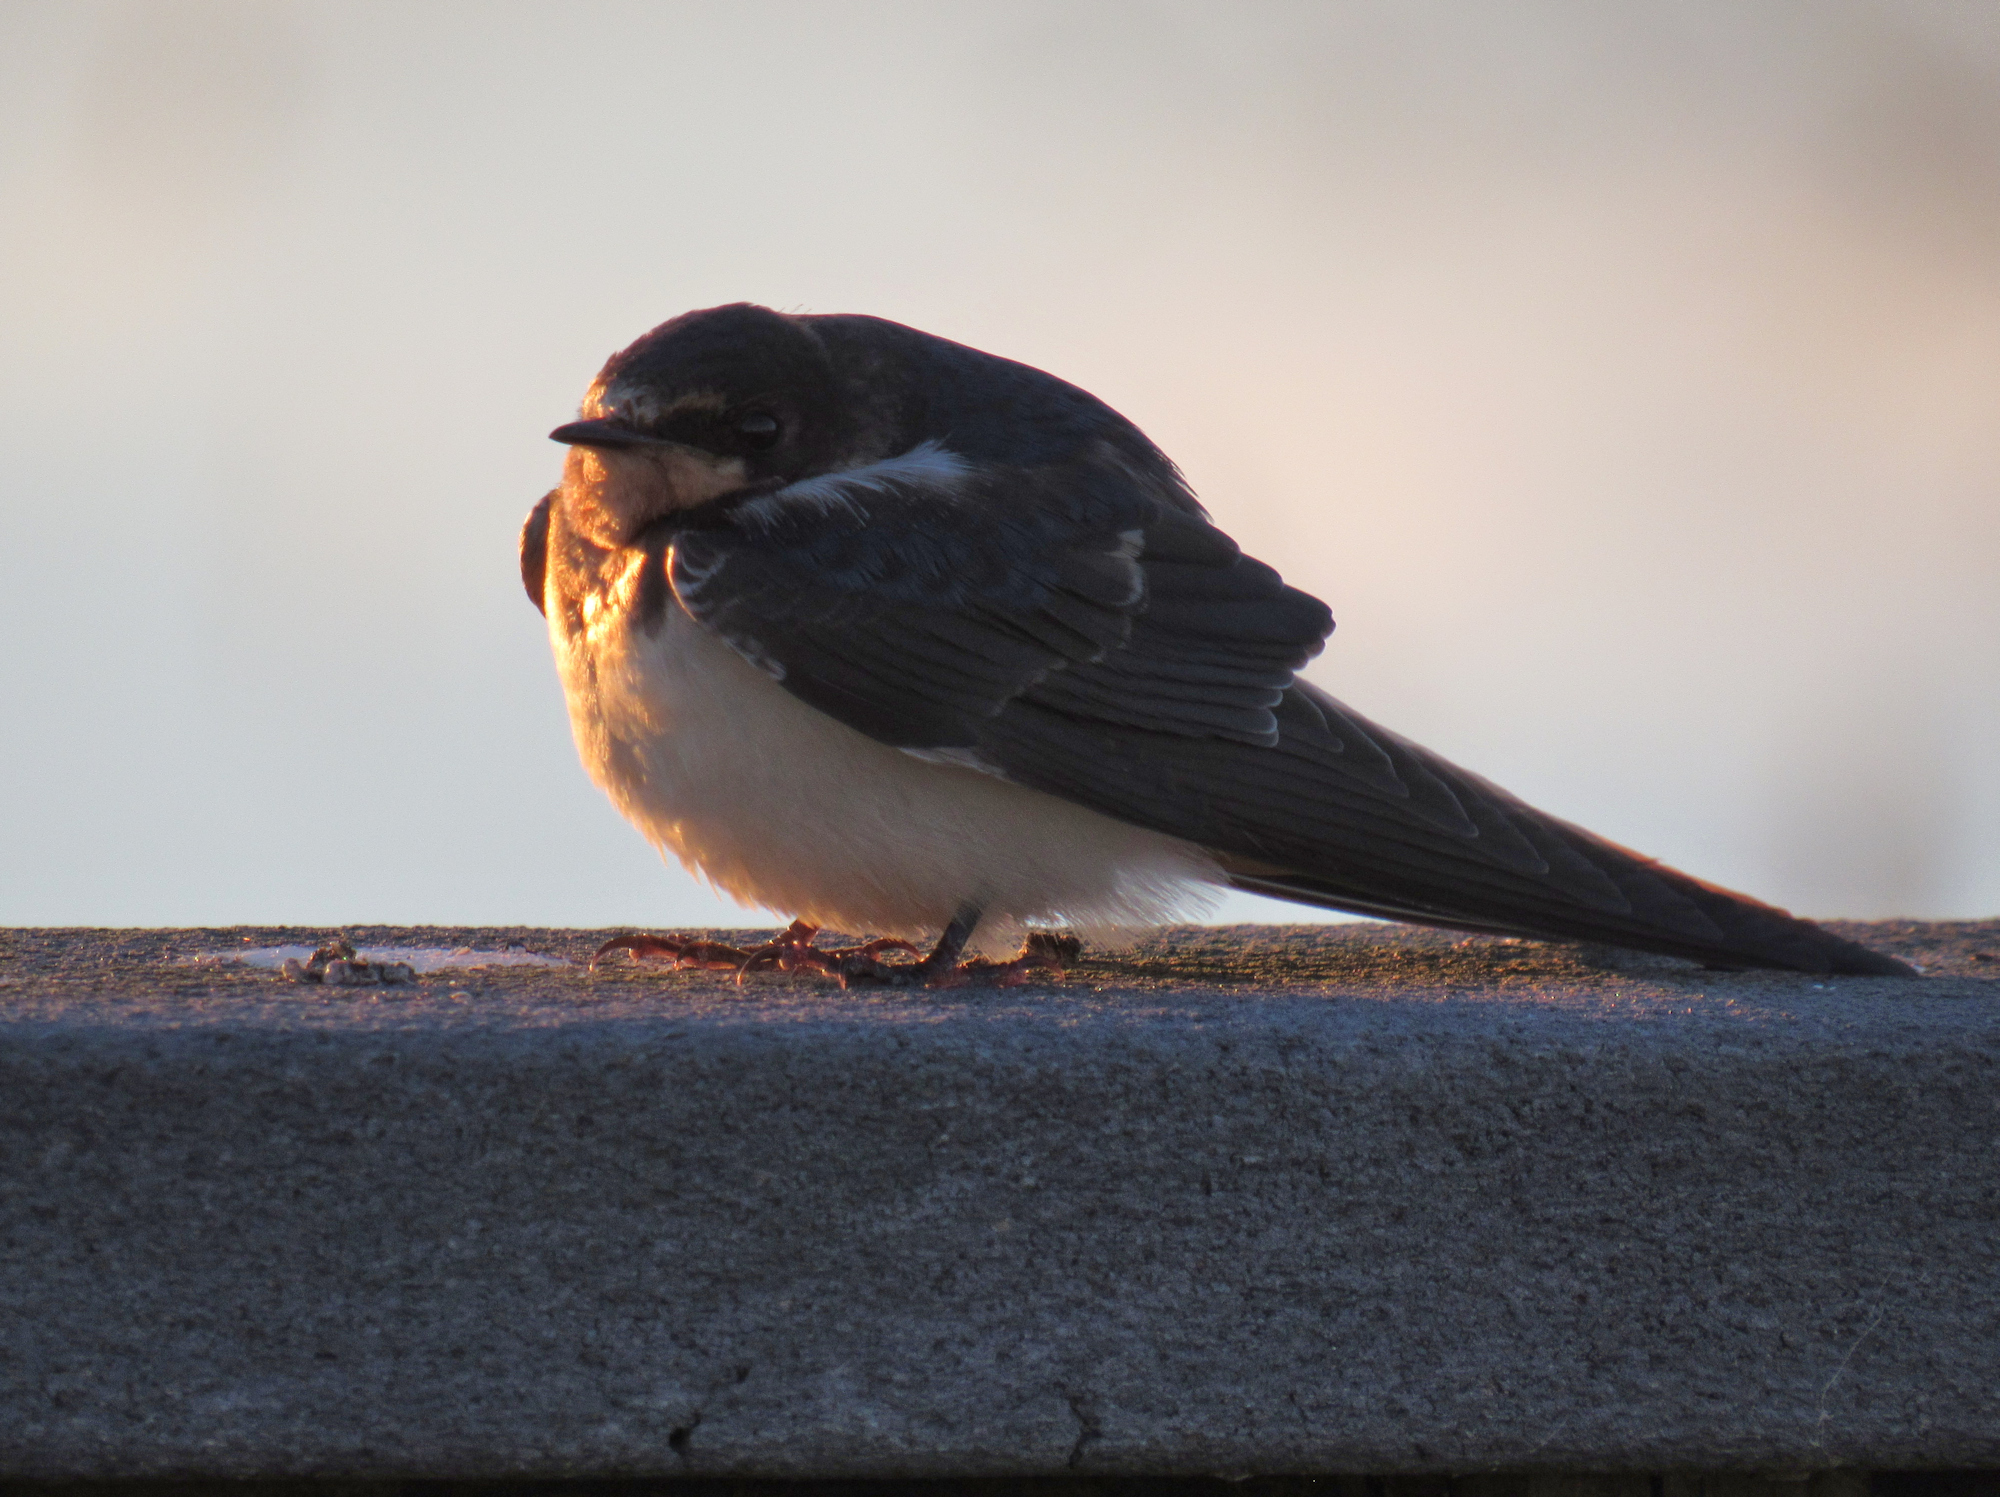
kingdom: Animalia
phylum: Chordata
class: Aves
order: Passeriformes
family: Hirundinidae
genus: Hirundo
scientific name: Hirundo rustica
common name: Barn swallow
